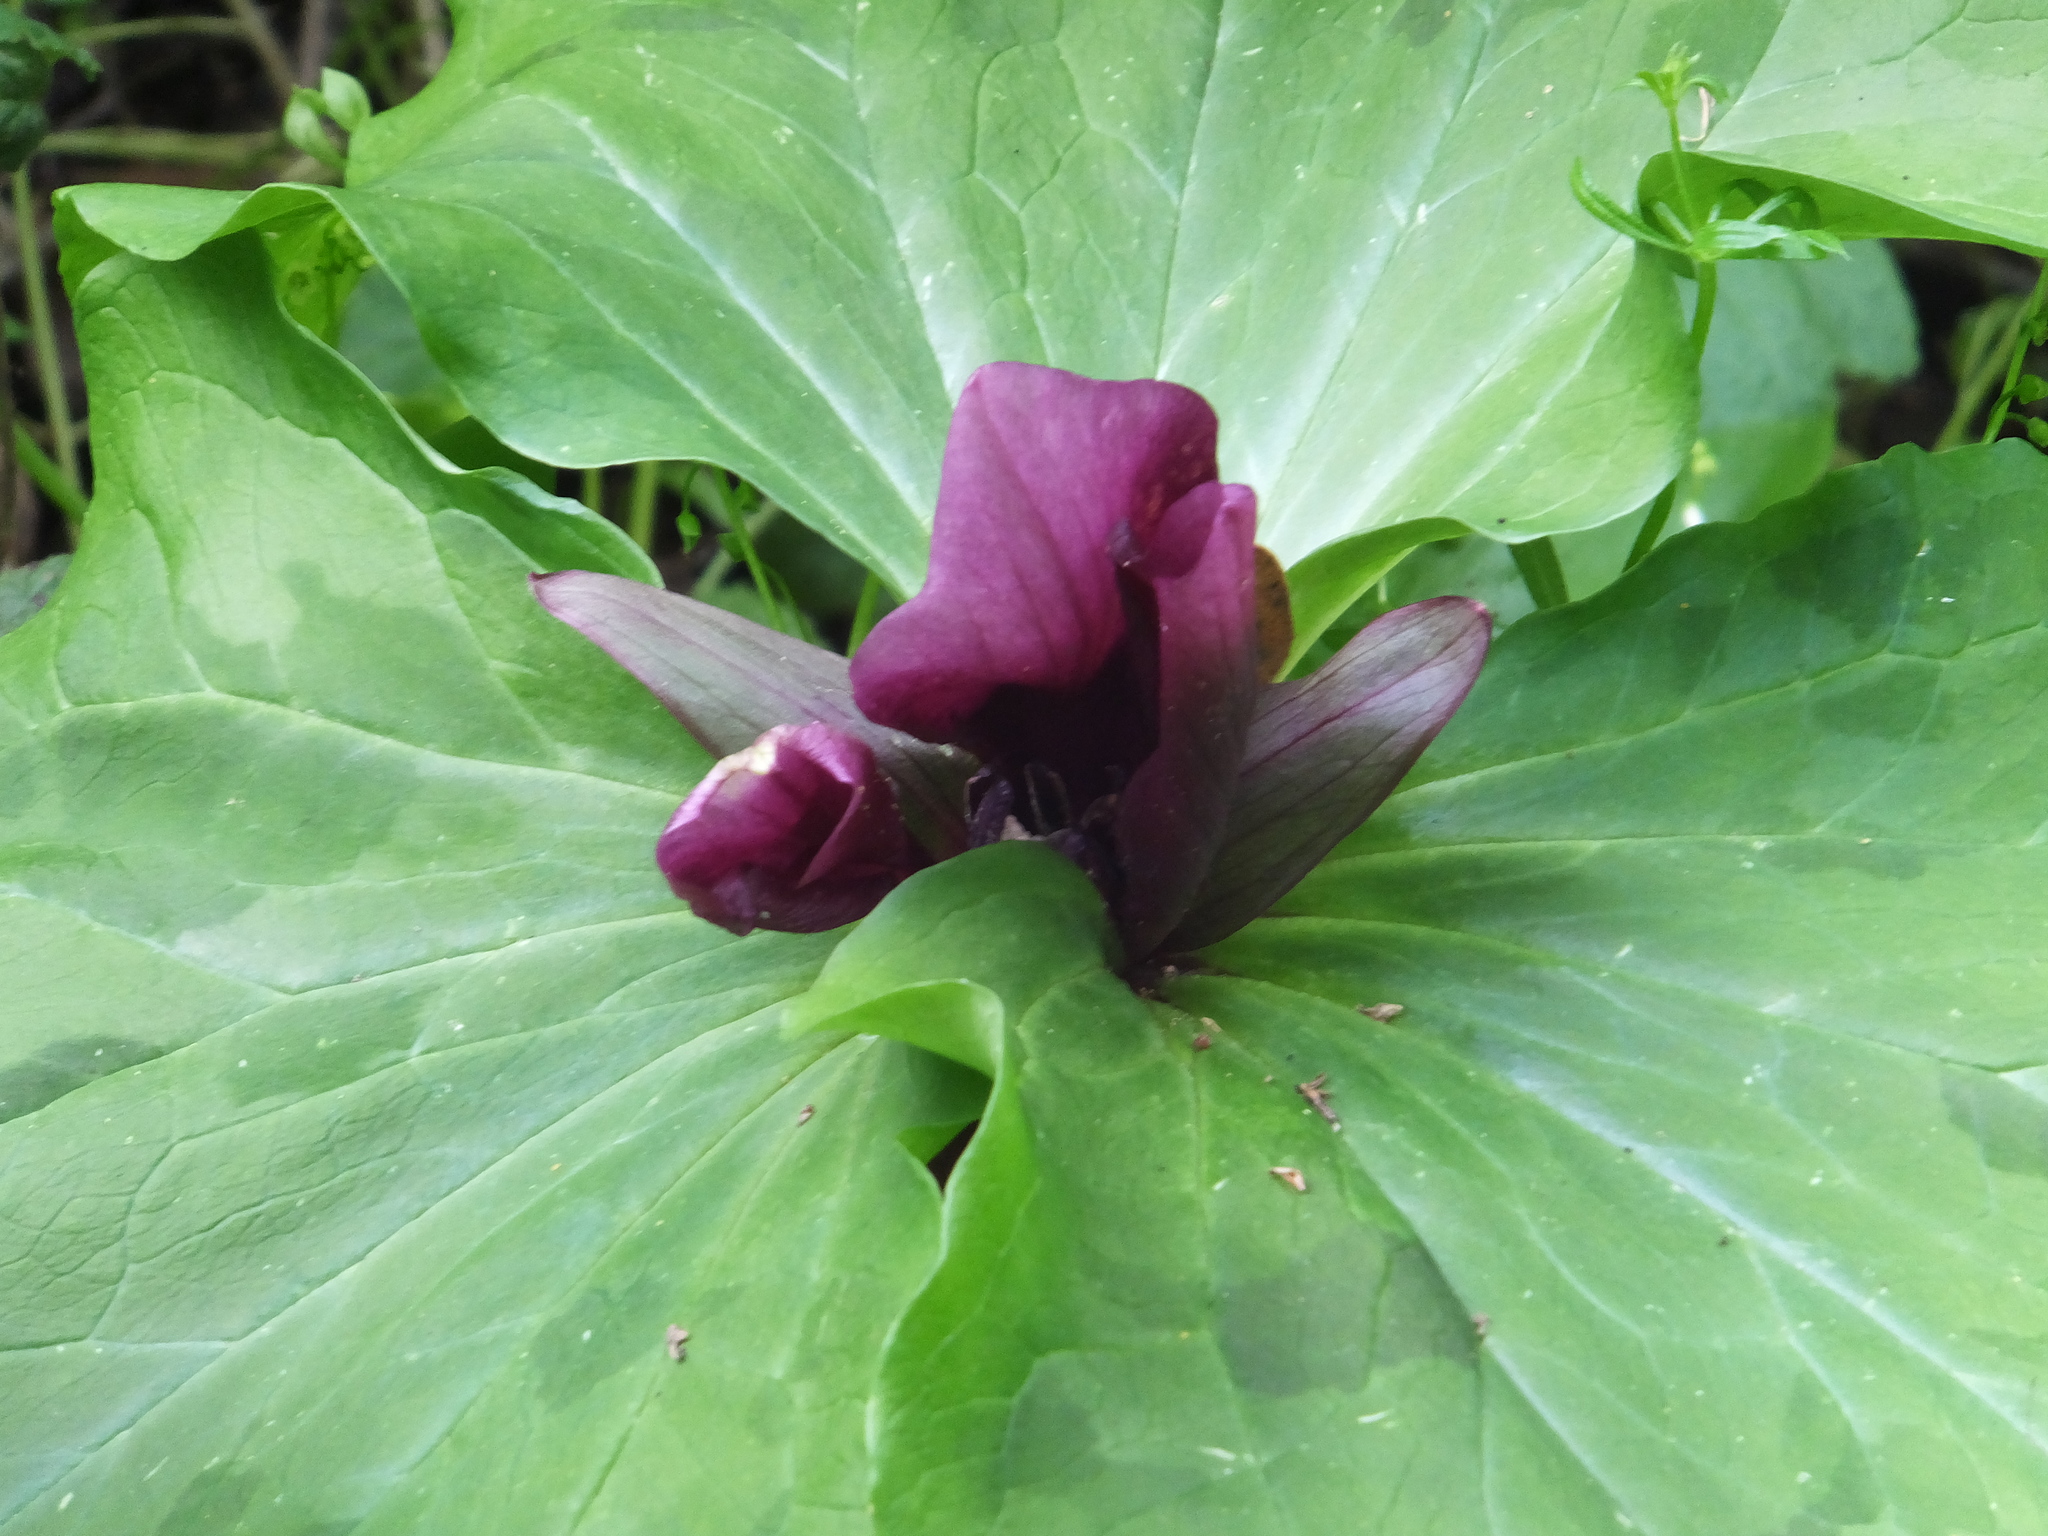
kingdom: Plantae
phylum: Tracheophyta
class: Liliopsida
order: Liliales
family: Melanthiaceae
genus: Trillium
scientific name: Trillium chloropetalum
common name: Giant trillium
